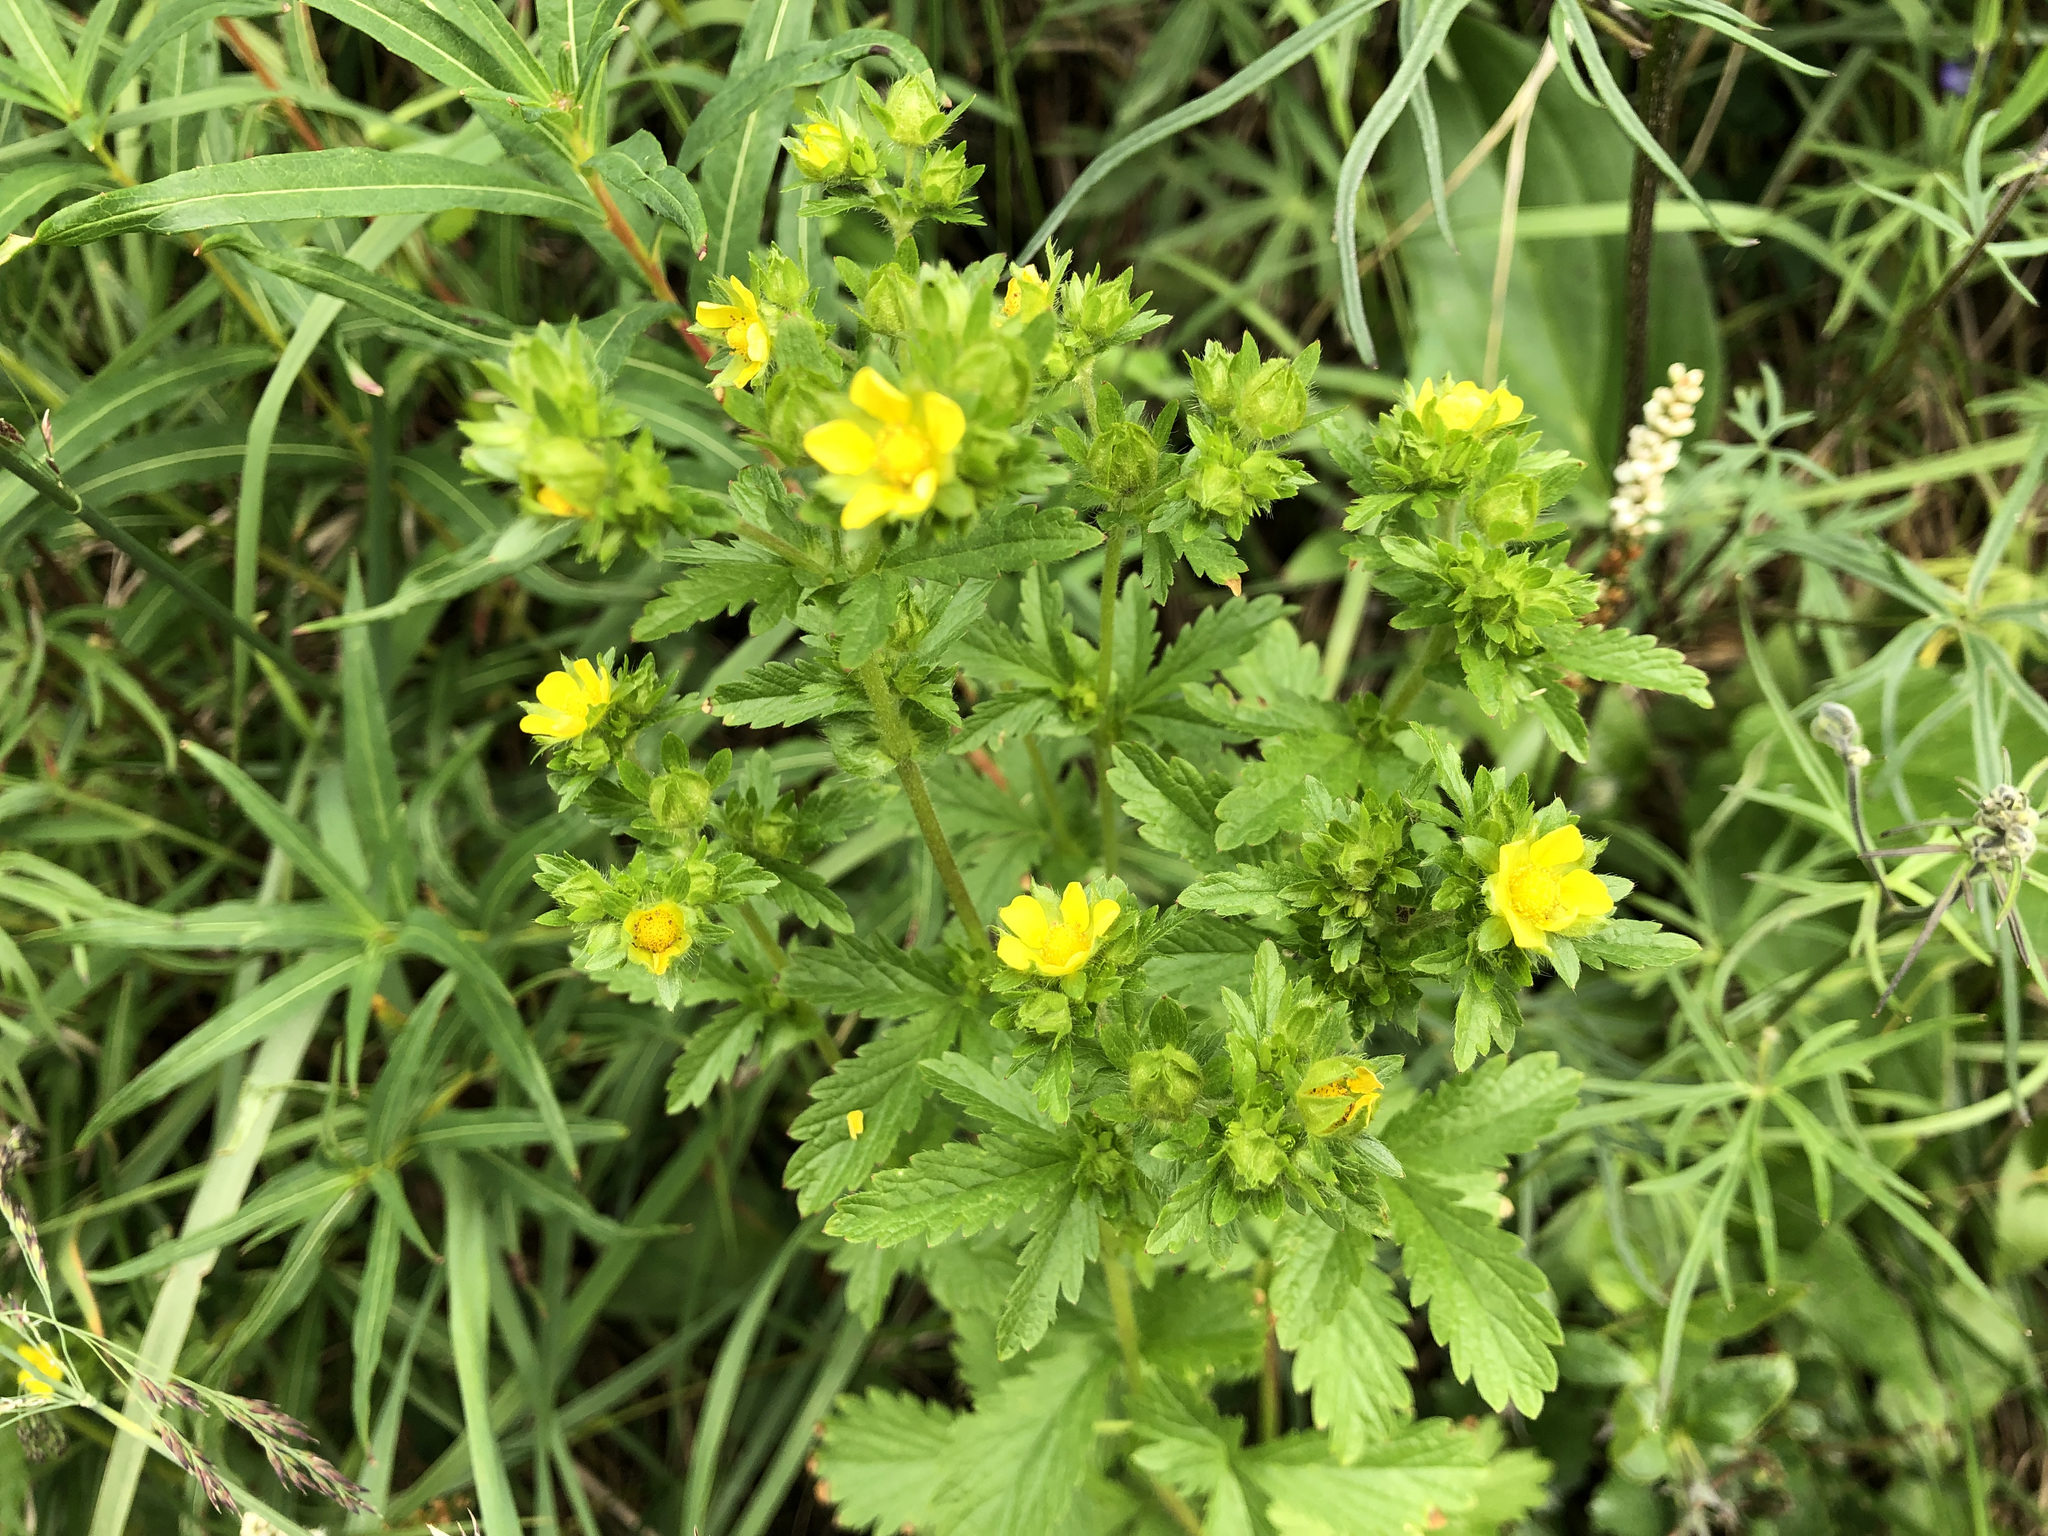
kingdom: Plantae
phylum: Tracheophyta
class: Magnoliopsida
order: Rosales
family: Rosaceae
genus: Potentilla
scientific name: Potentilla norvegica
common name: Ternate-leaved cinquefoil
